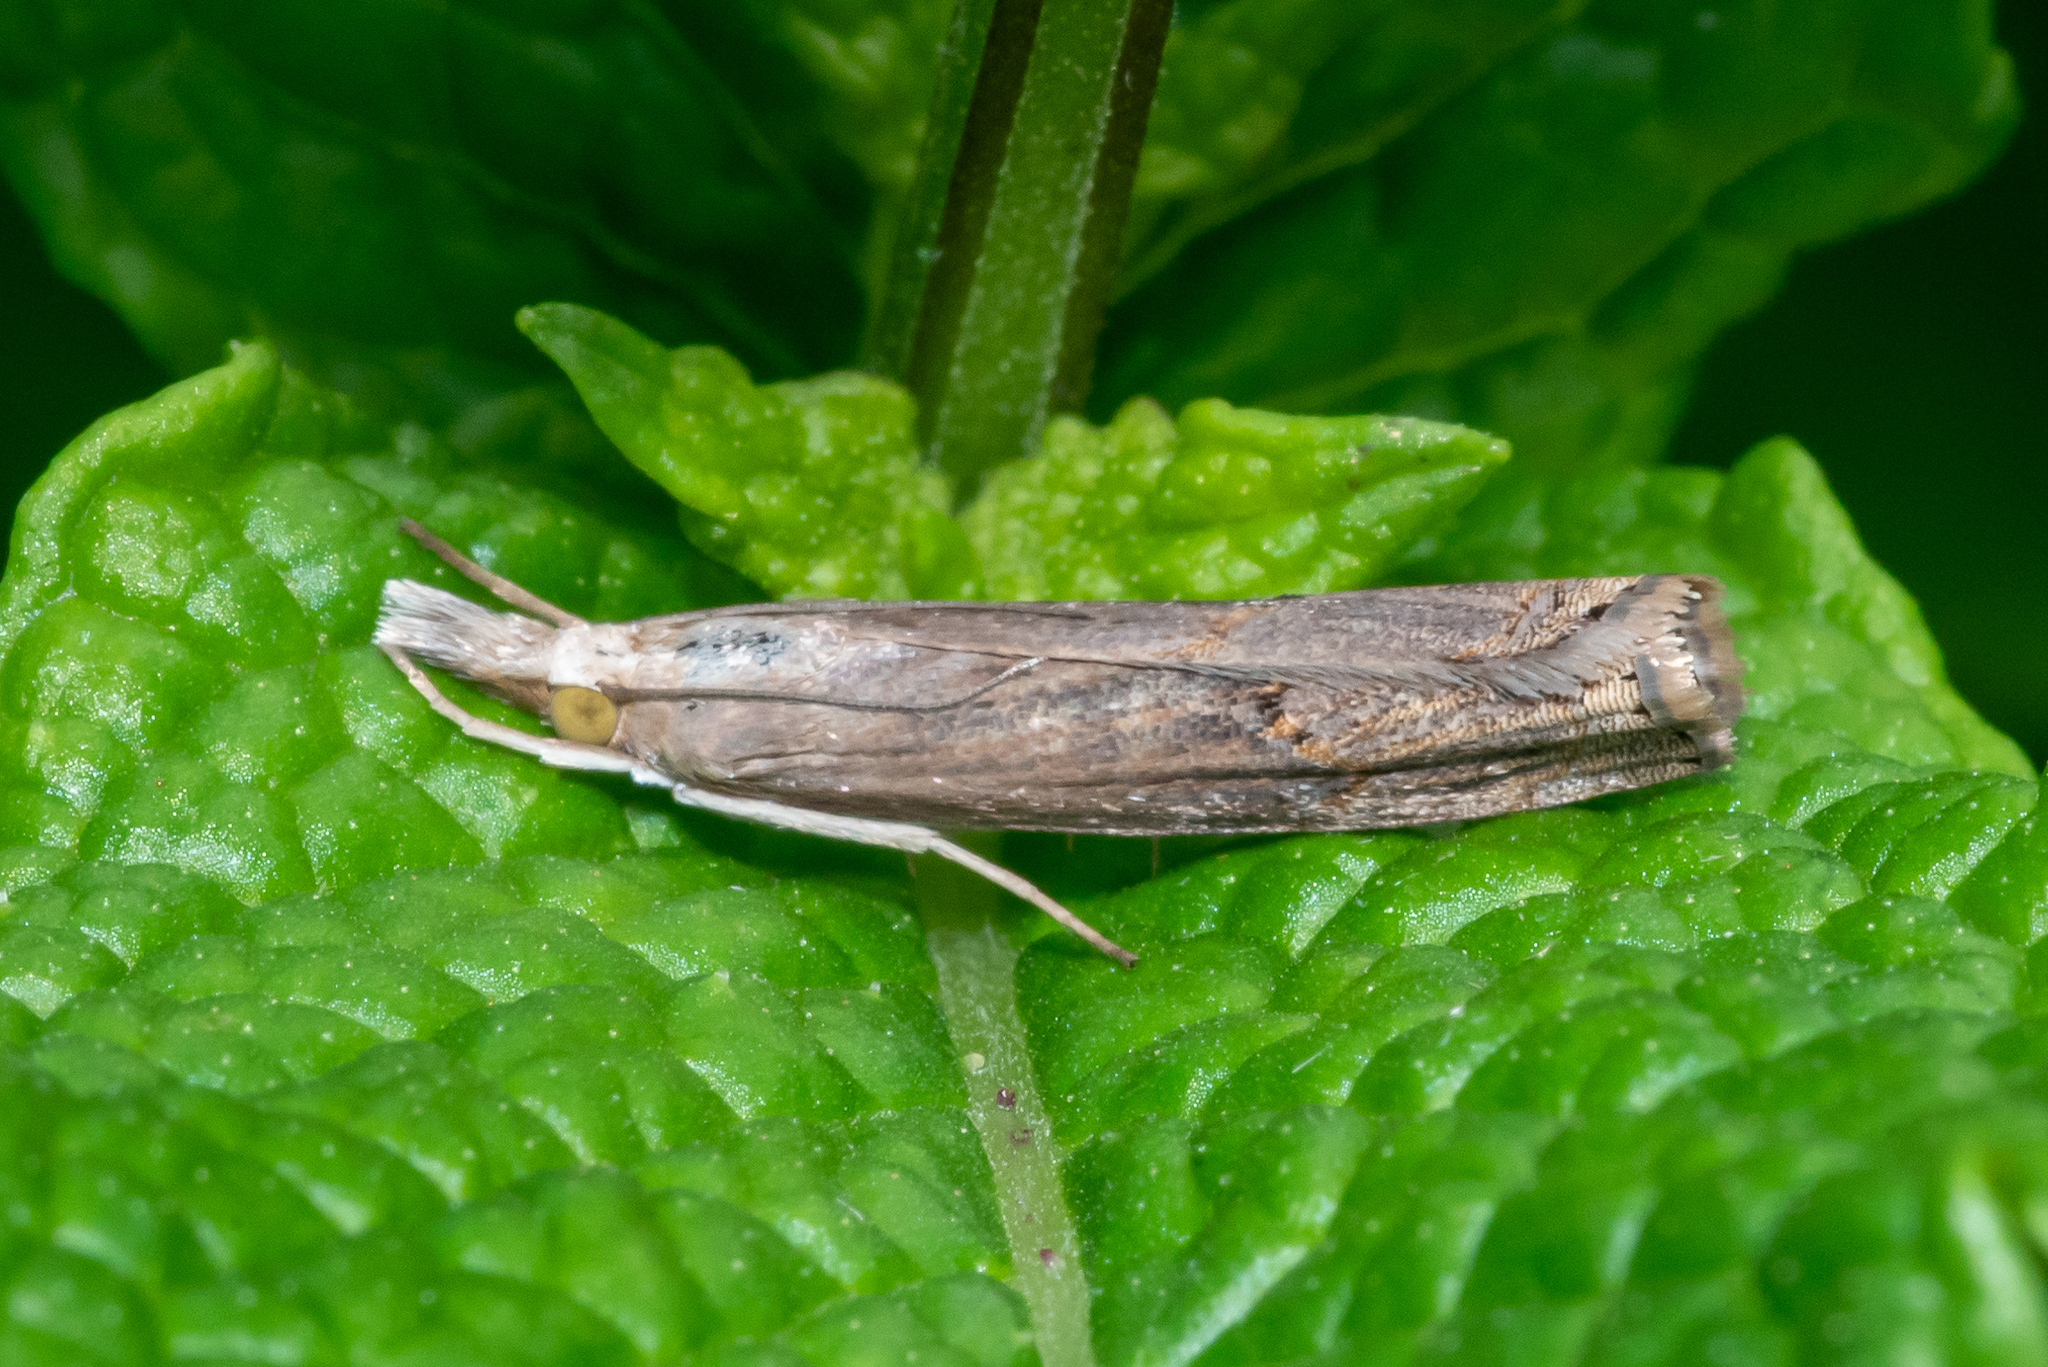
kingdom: Animalia
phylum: Arthropoda
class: Insecta
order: Lepidoptera
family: Crambidae
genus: Parapediasia
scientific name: Parapediasia teterellus
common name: Bluegrass webworm moth
